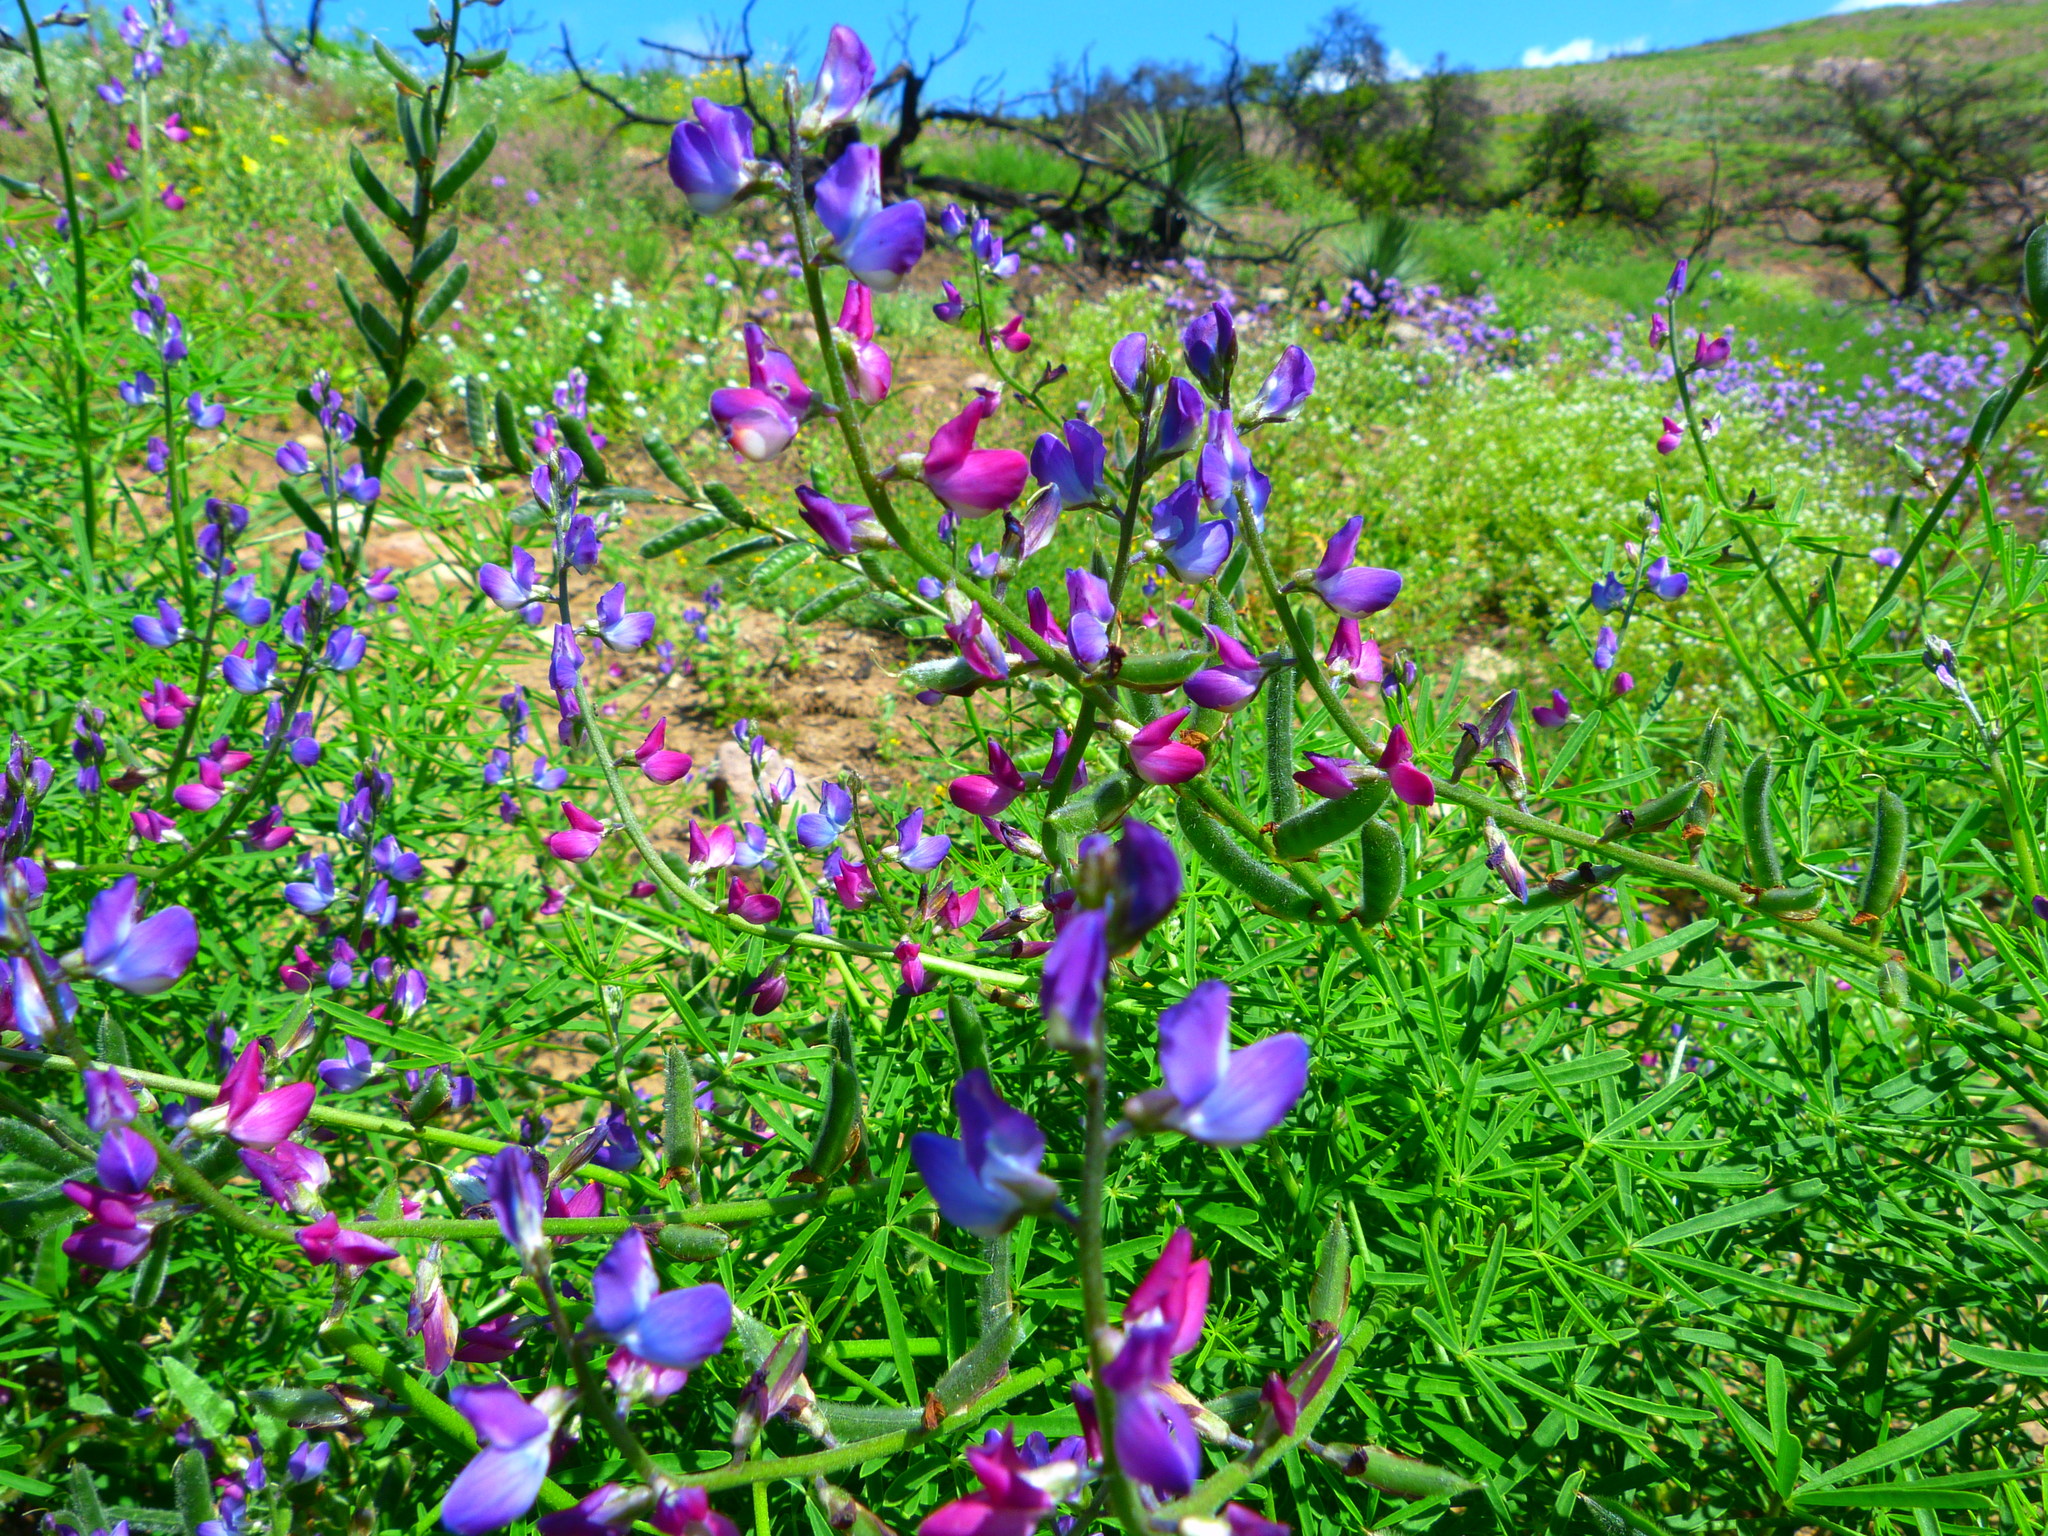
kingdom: Plantae
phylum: Tracheophyta
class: Magnoliopsida
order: Fabales
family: Fabaceae
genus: Lupinus
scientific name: Lupinus truncatus
